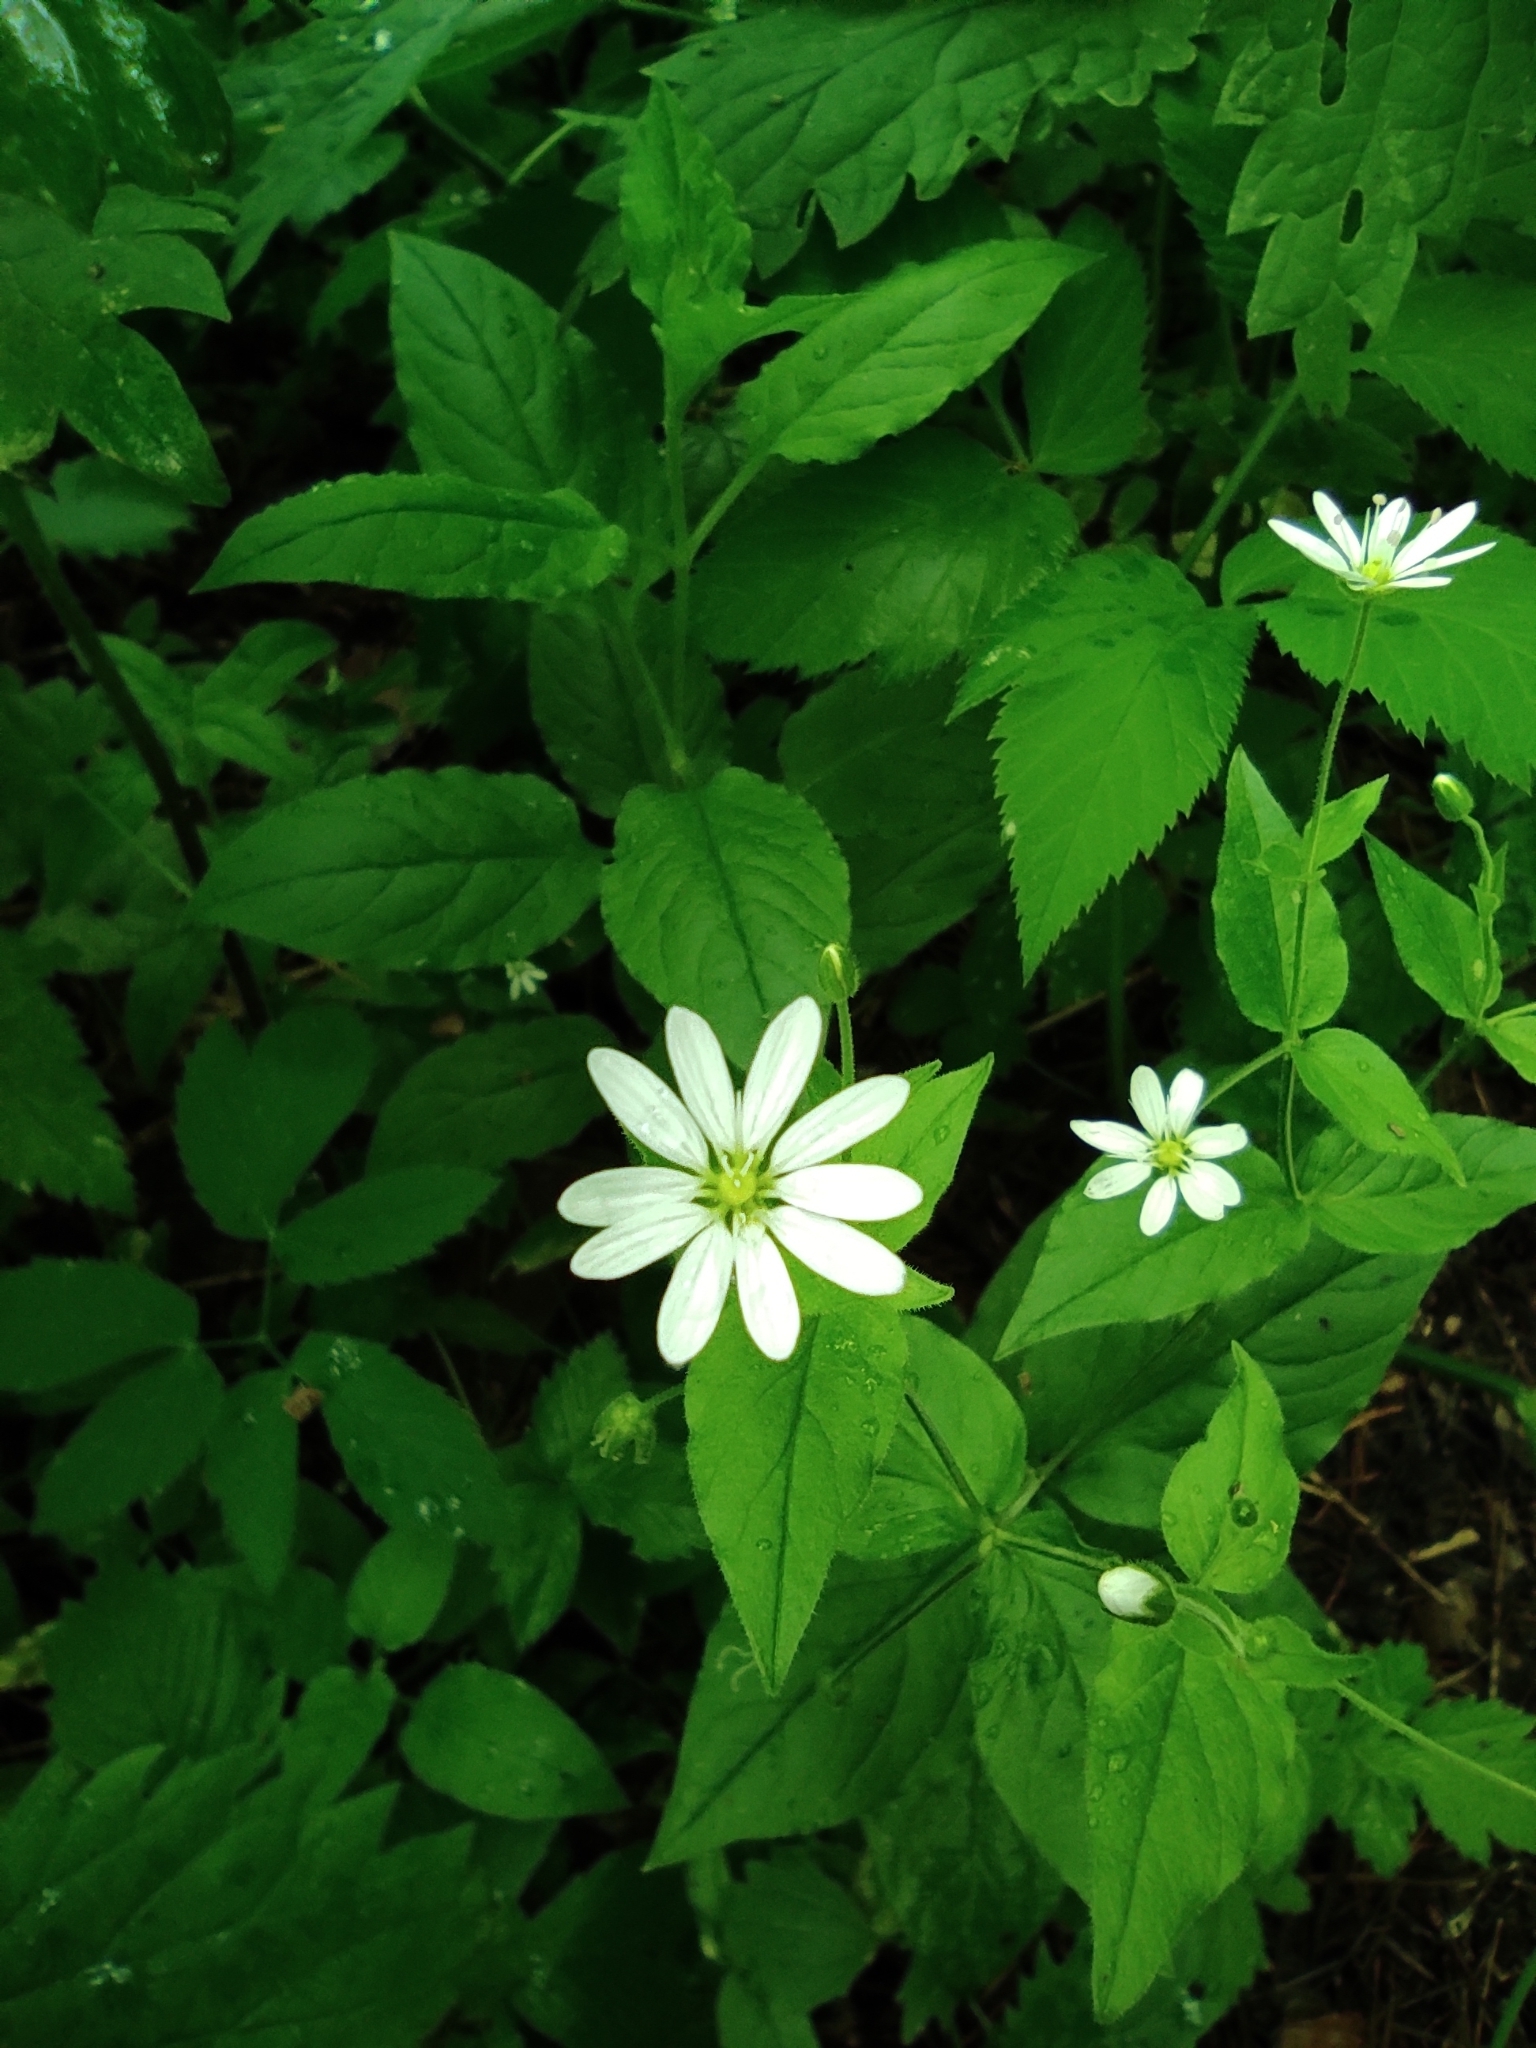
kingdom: Plantae
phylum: Tracheophyta
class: Magnoliopsida
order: Caryophyllales
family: Caryophyllaceae
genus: Stellaria
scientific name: Stellaria bungeana
